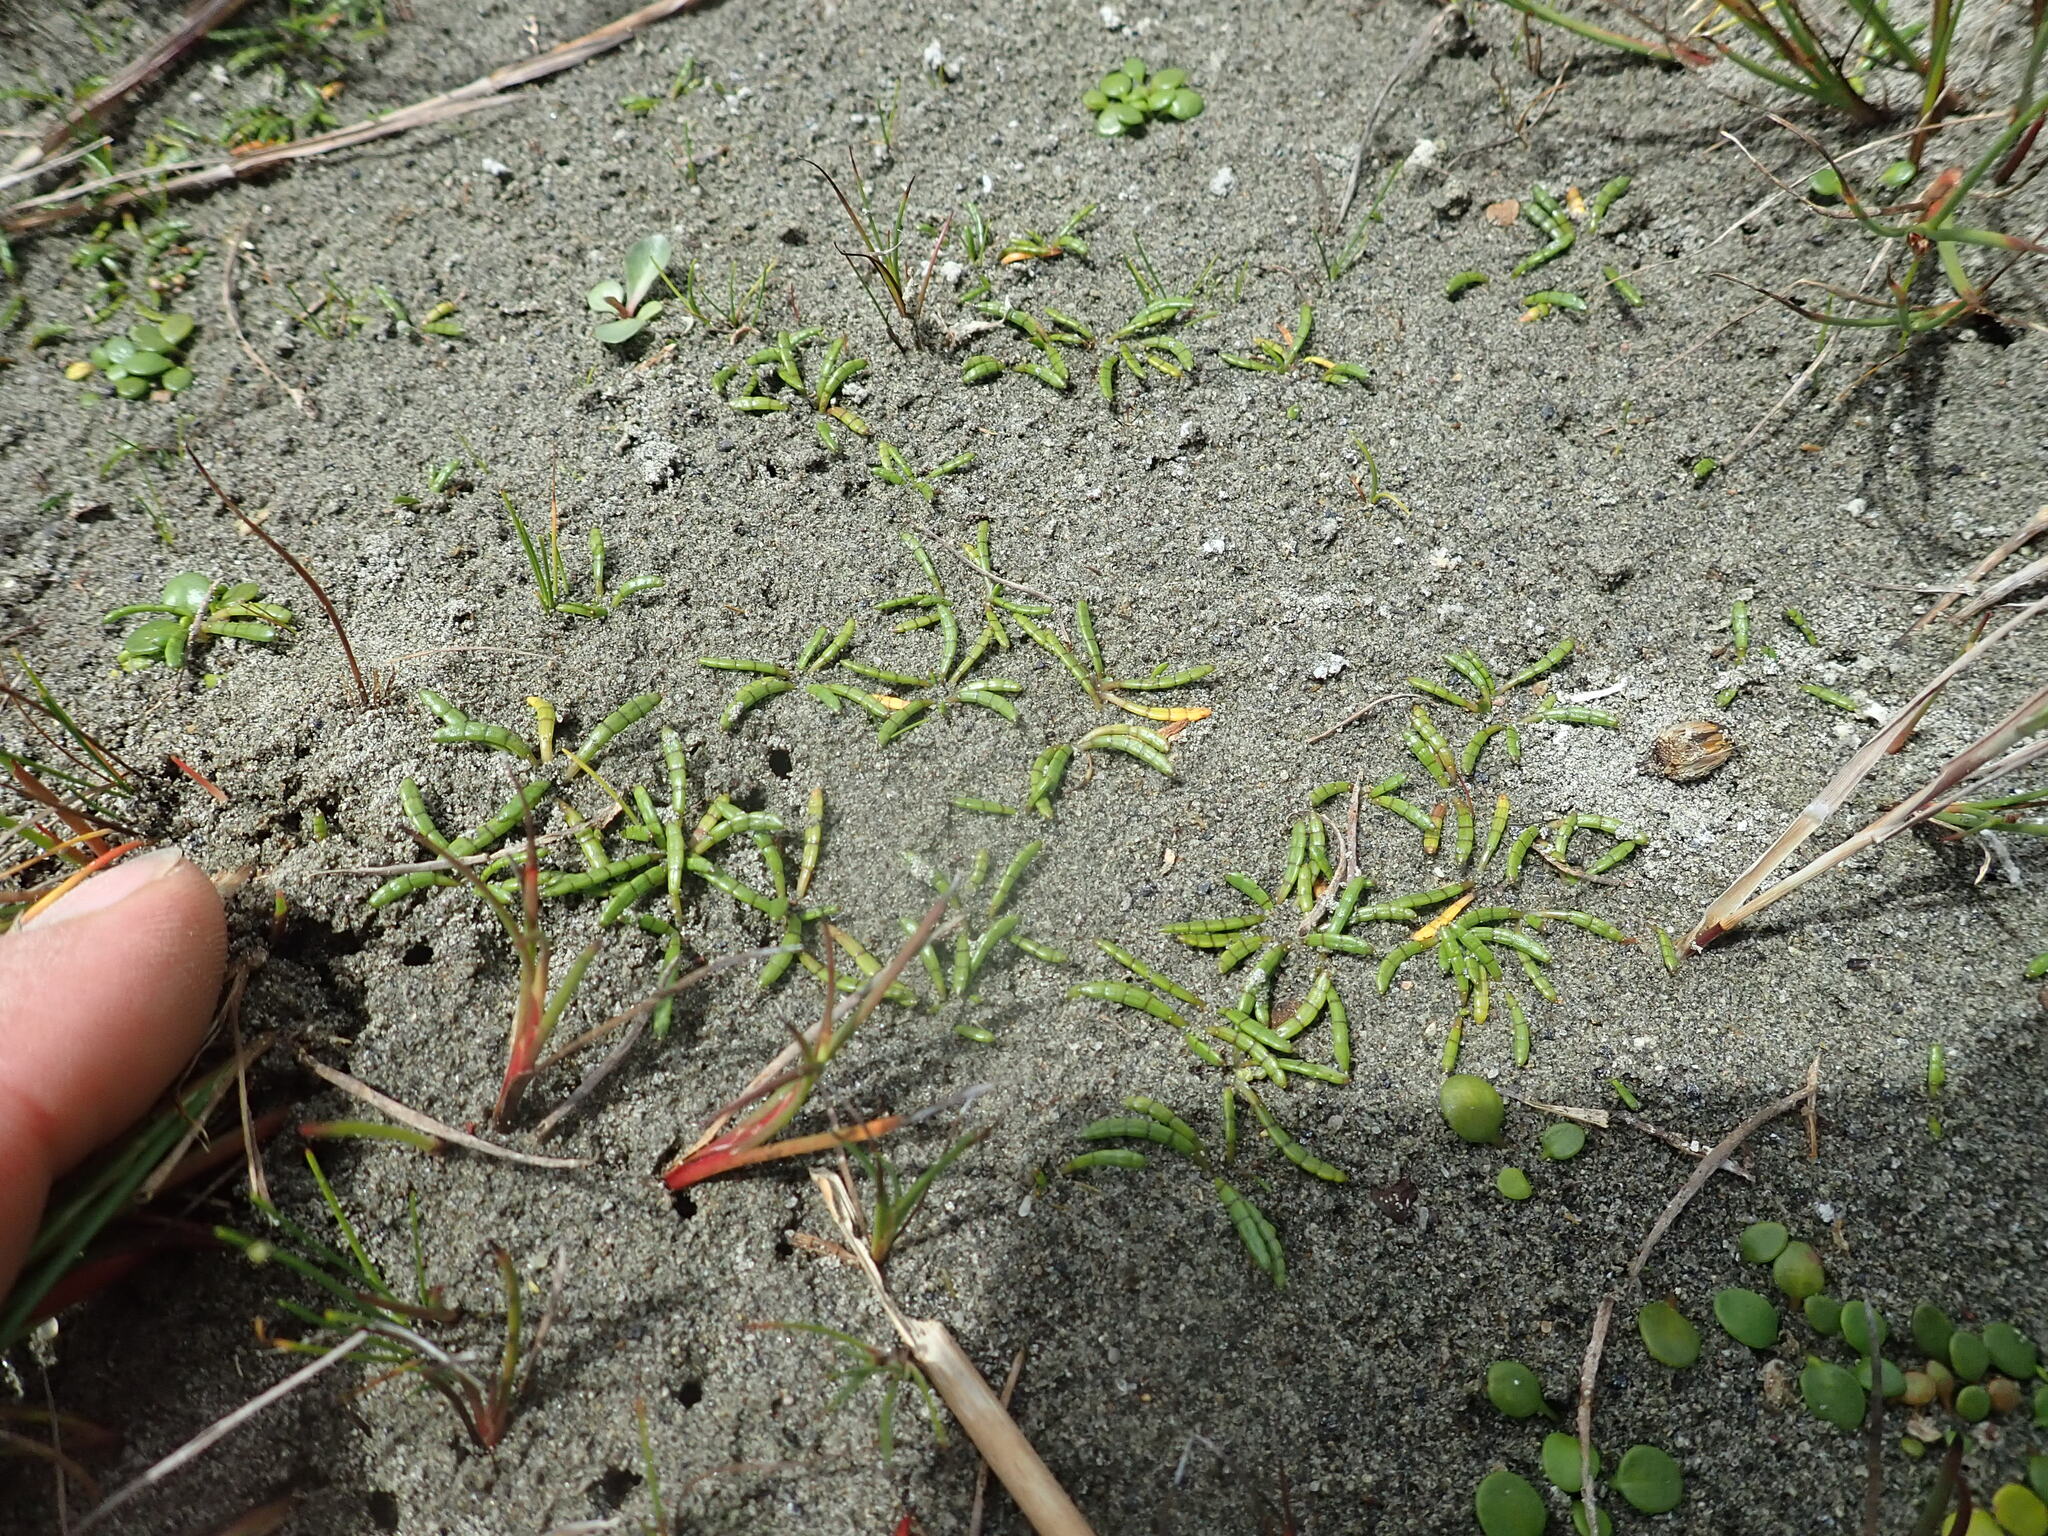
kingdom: Plantae
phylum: Tracheophyta
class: Magnoliopsida
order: Apiales
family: Apiaceae
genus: Lilaeopsis
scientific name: Lilaeopsis novae-zelandiae
